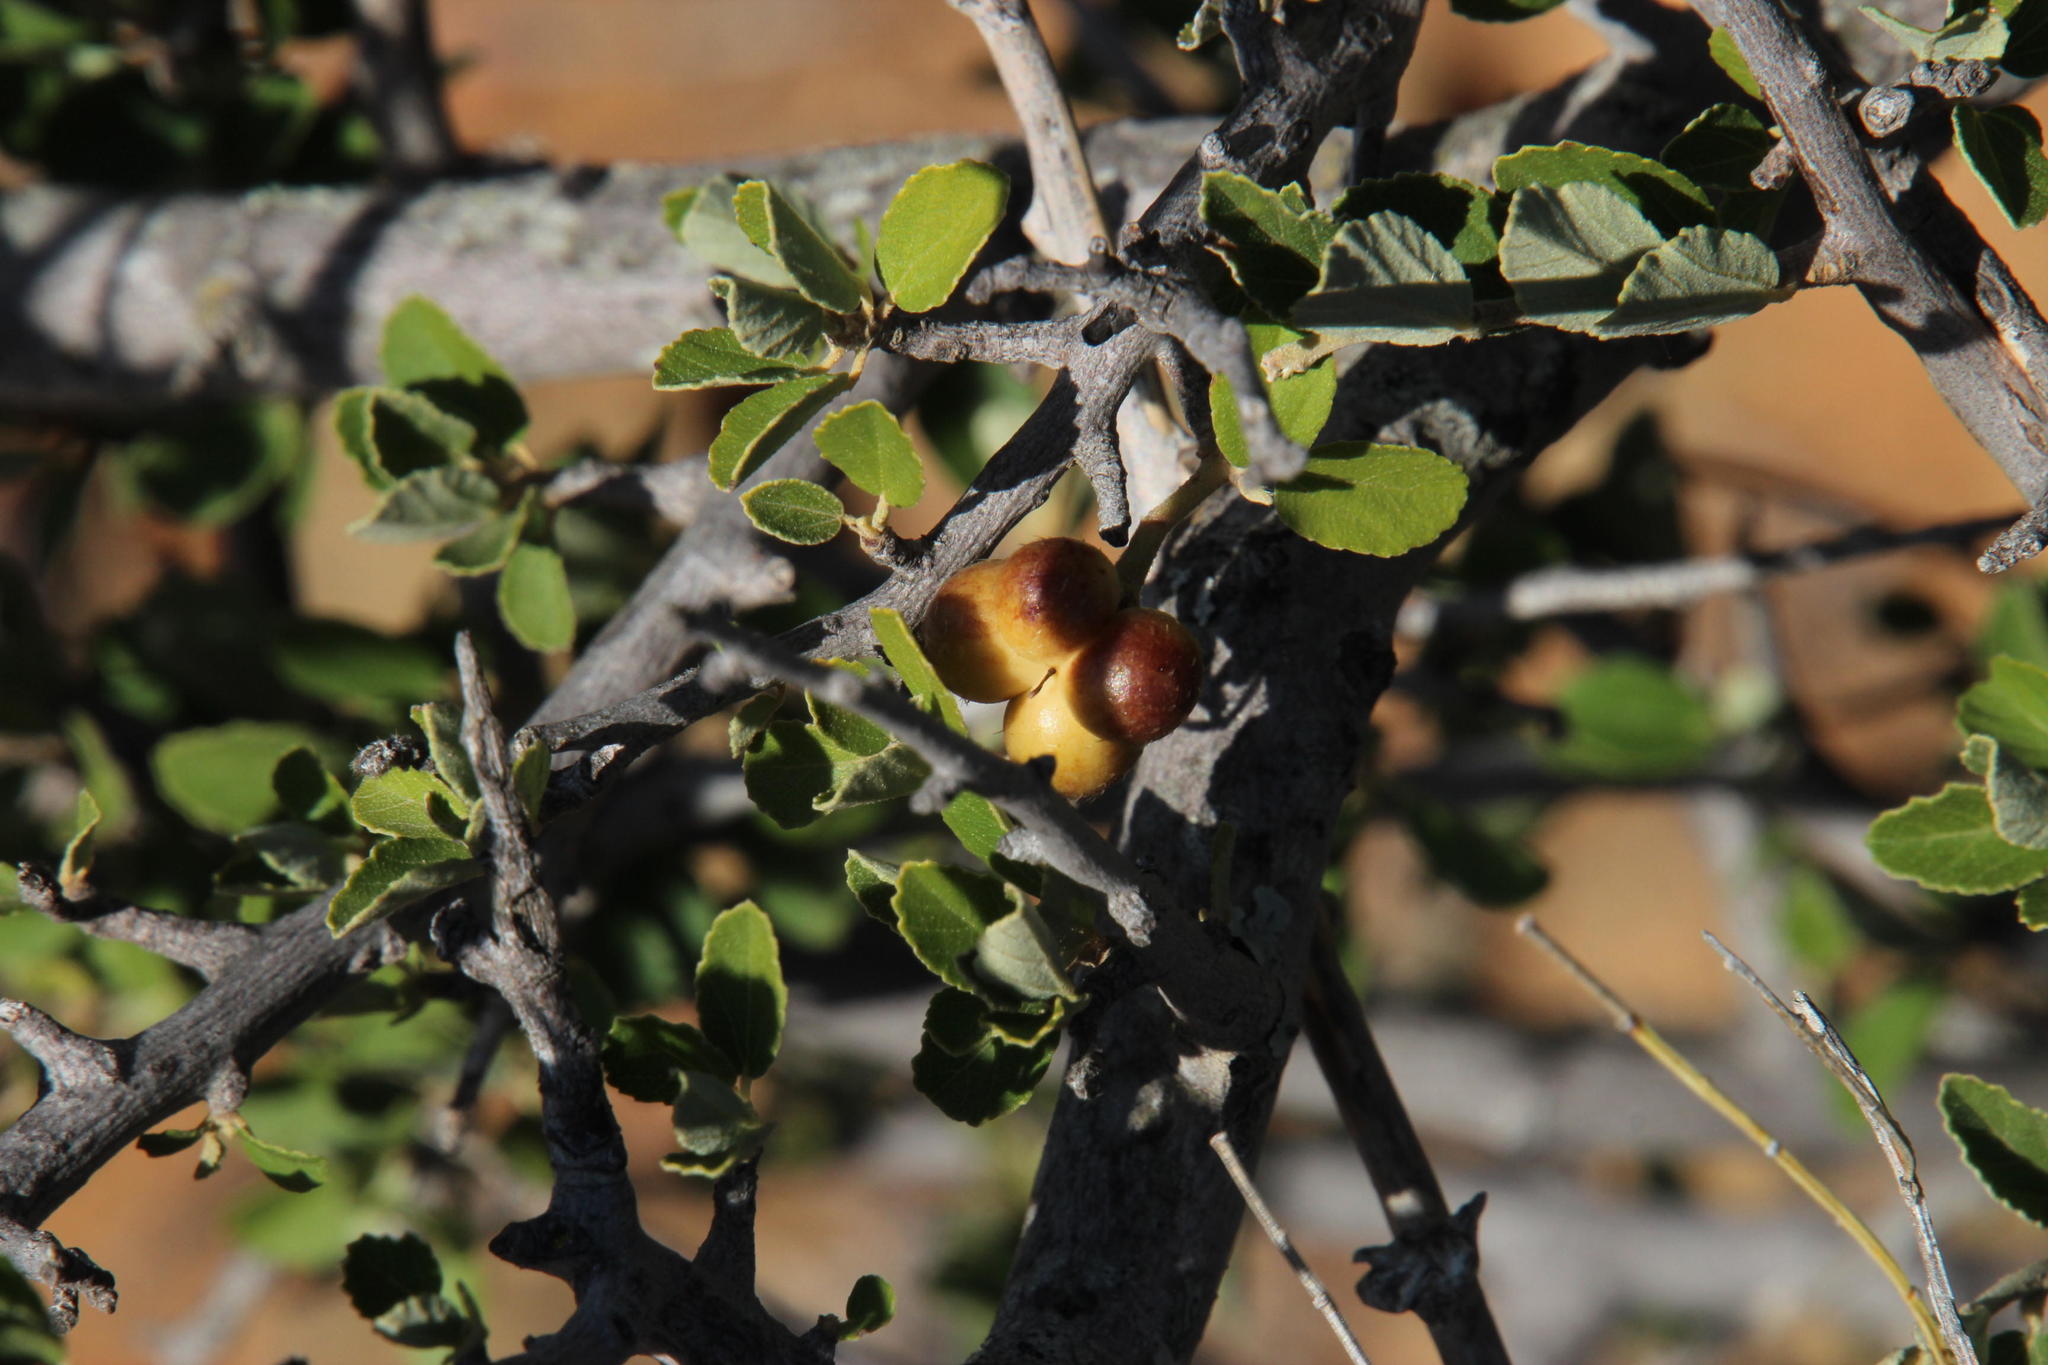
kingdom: Plantae
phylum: Tracheophyta
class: Magnoliopsida
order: Malvales
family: Malvaceae
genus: Grewia
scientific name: Grewia robusta
